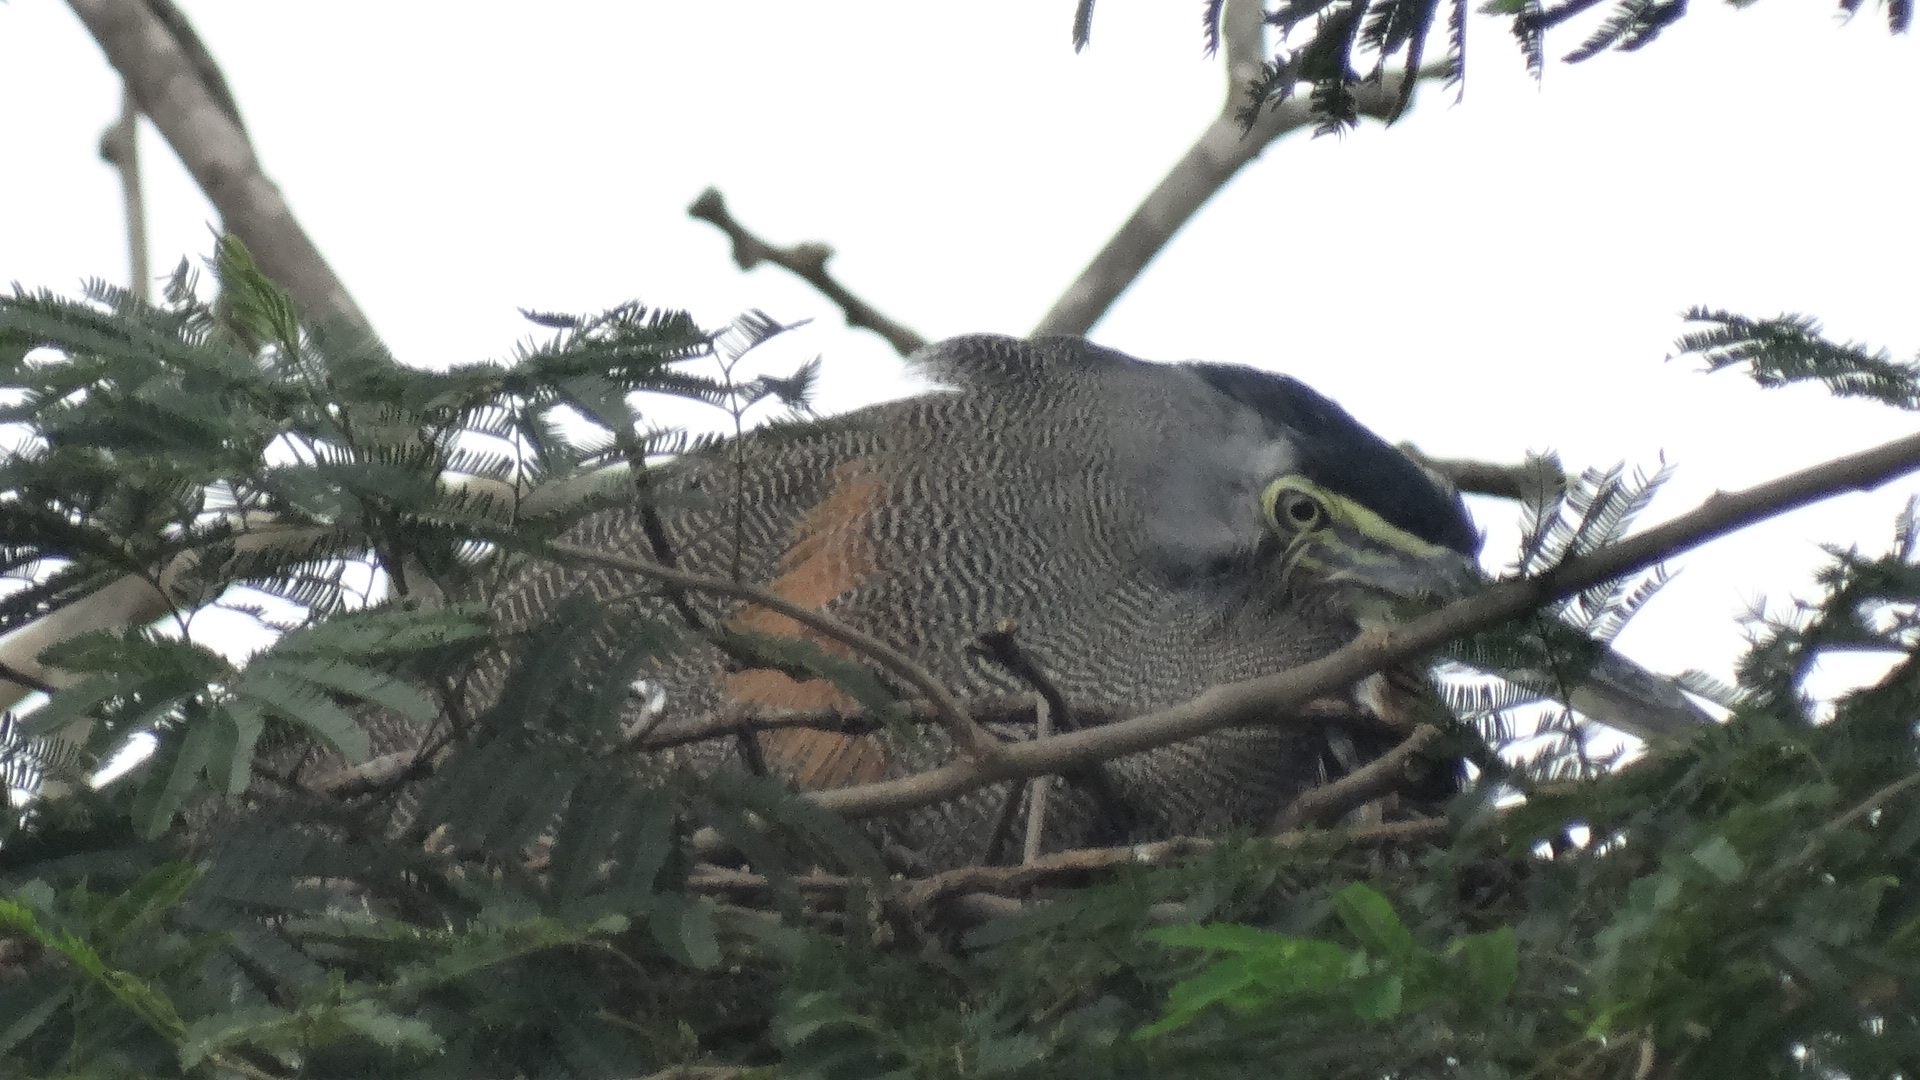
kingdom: Animalia
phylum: Chordata
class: Aves
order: Pelecaniformes
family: Ardeidae
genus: Tigrisoma
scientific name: Tigrisoma mexicanum
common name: Bare-throated tiger-heron
